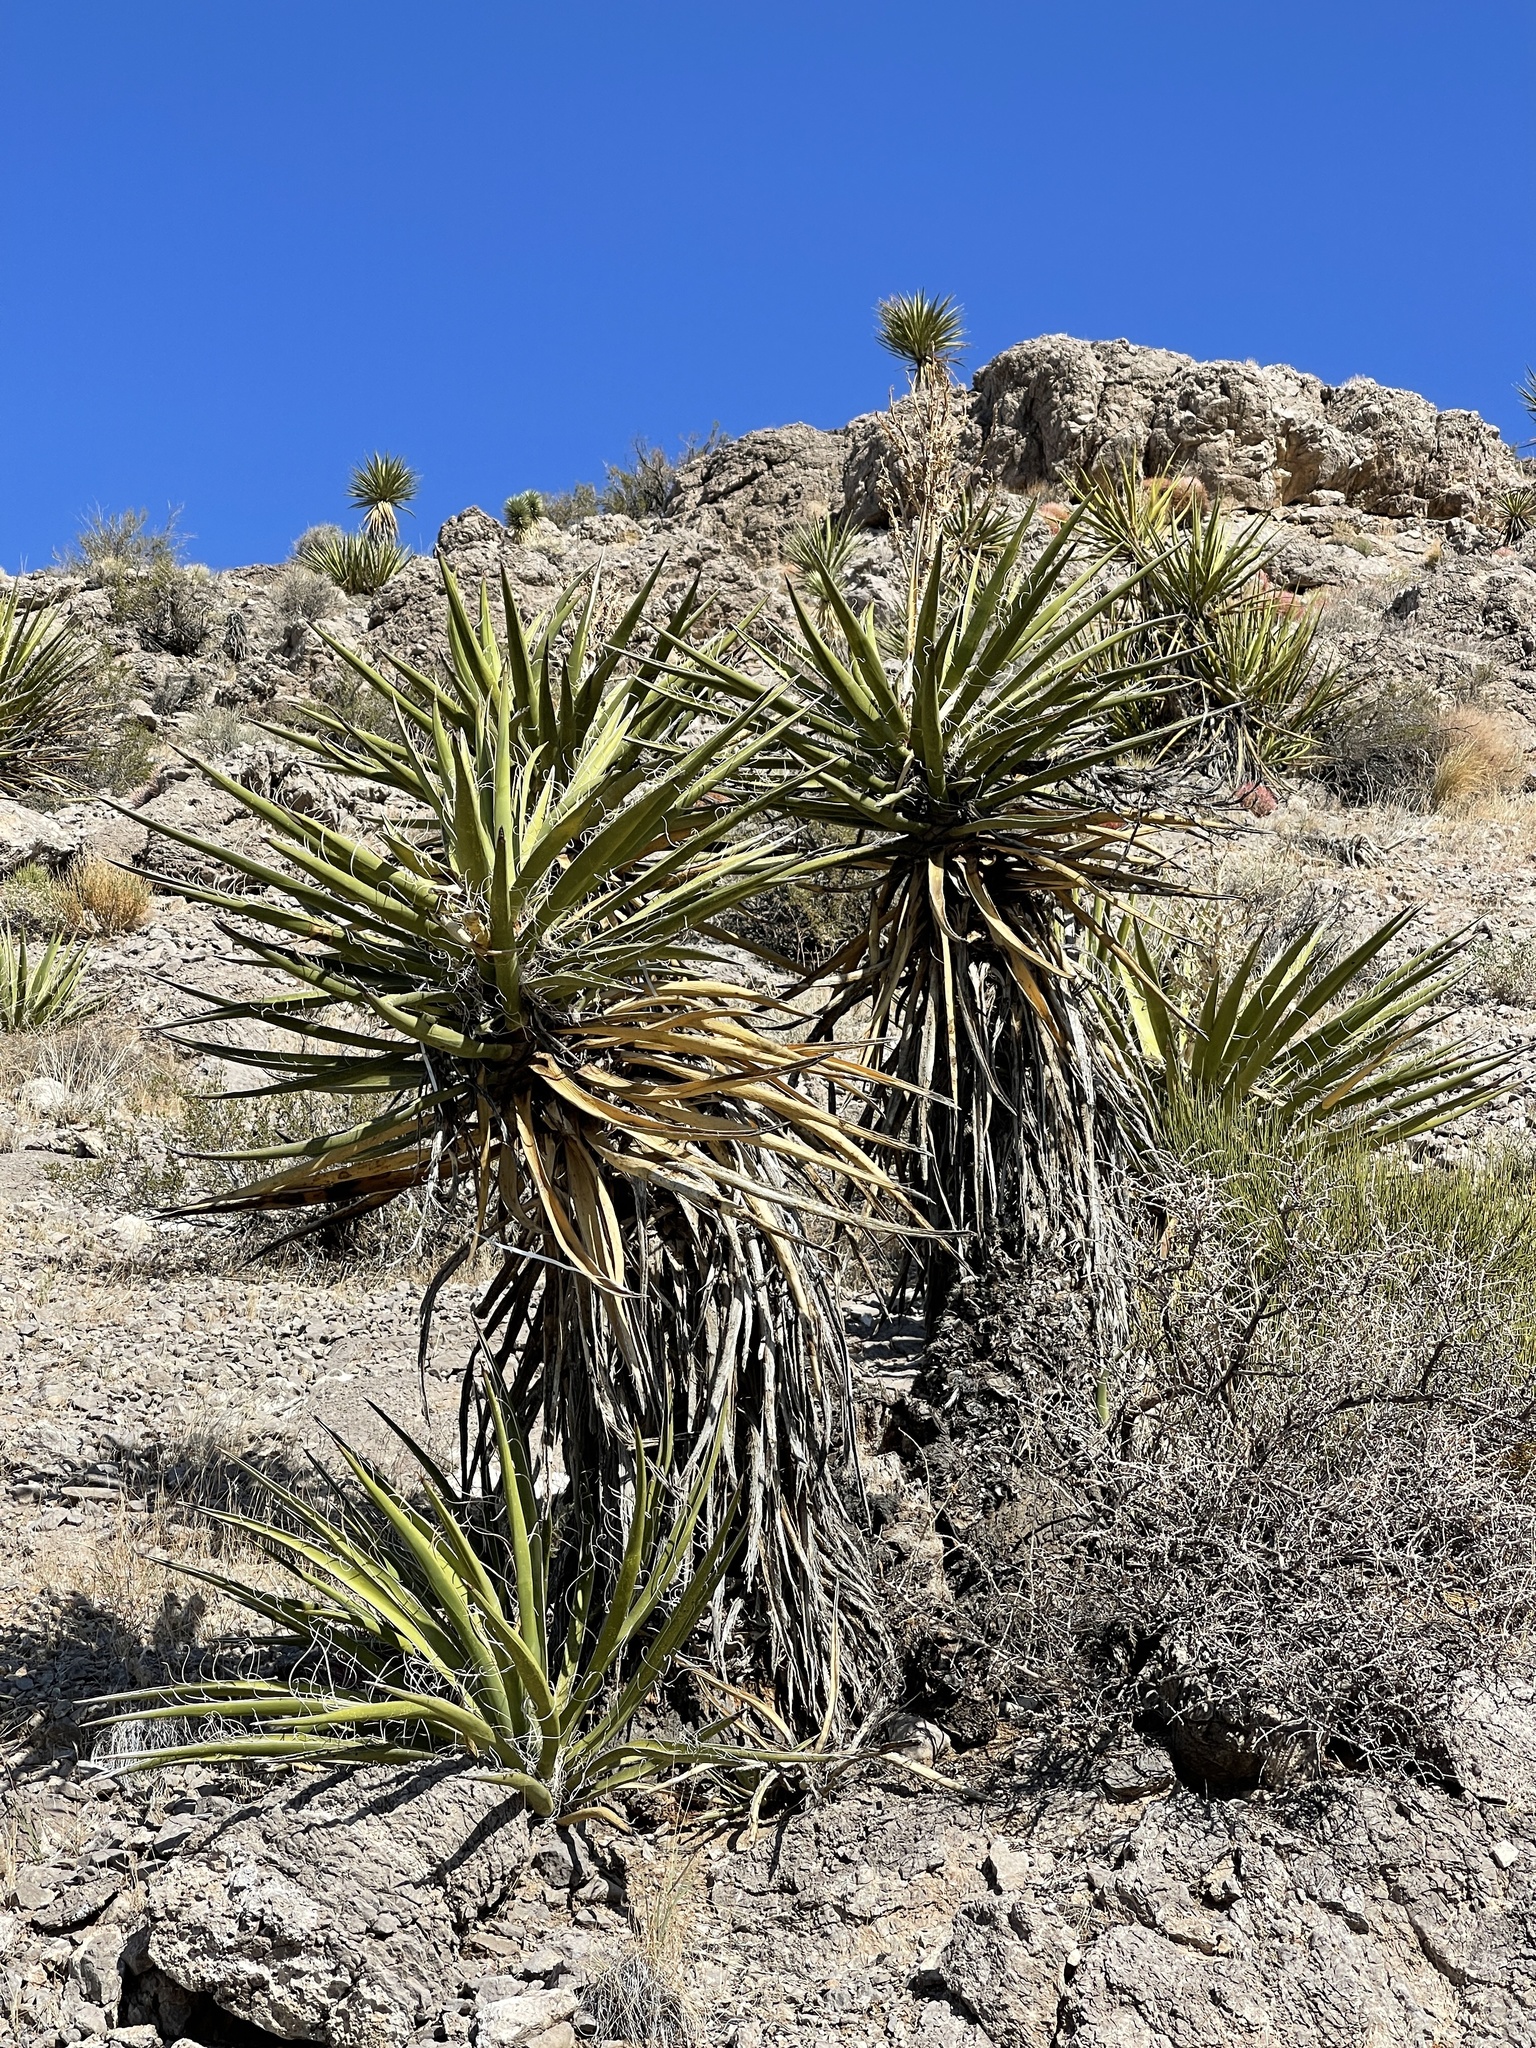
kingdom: Plantae
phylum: Tracheophyta
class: Liliopsida
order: Asparagales
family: Asparagaceae
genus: Yucca
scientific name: Yucca schidigera
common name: Mojave yucca
